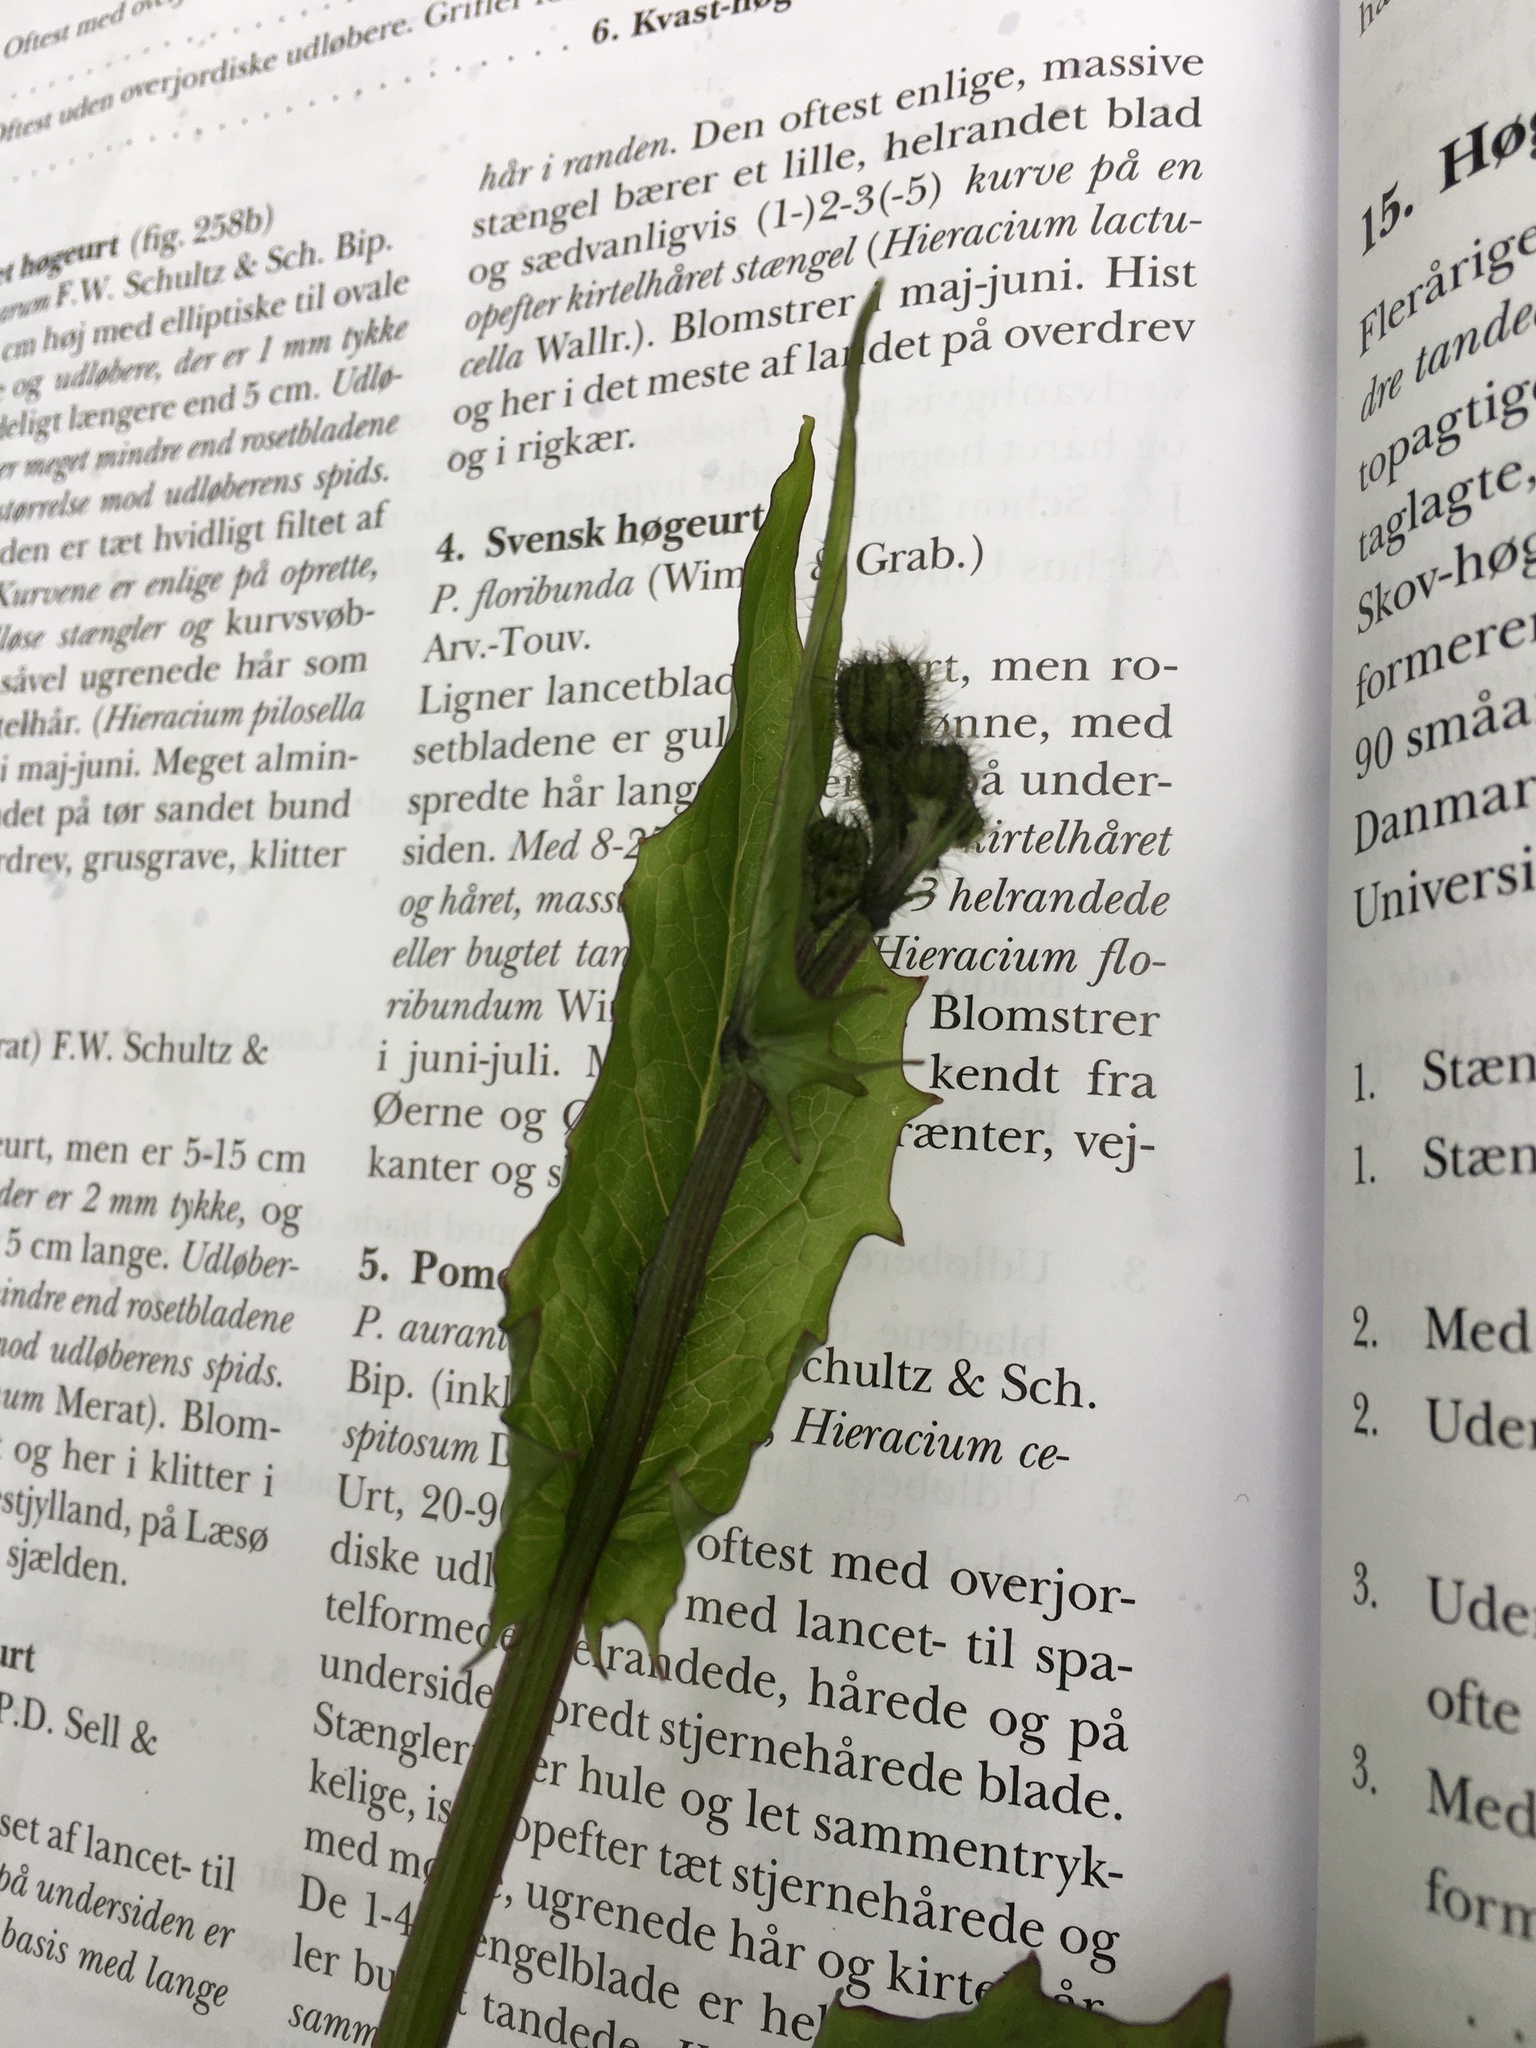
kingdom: Plantae
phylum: Tracheophyta
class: Magnoliopsida
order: Asterales
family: Asteraceae
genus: Crepis
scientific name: Crepis paludosa
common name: Marsh hawk's-beard
